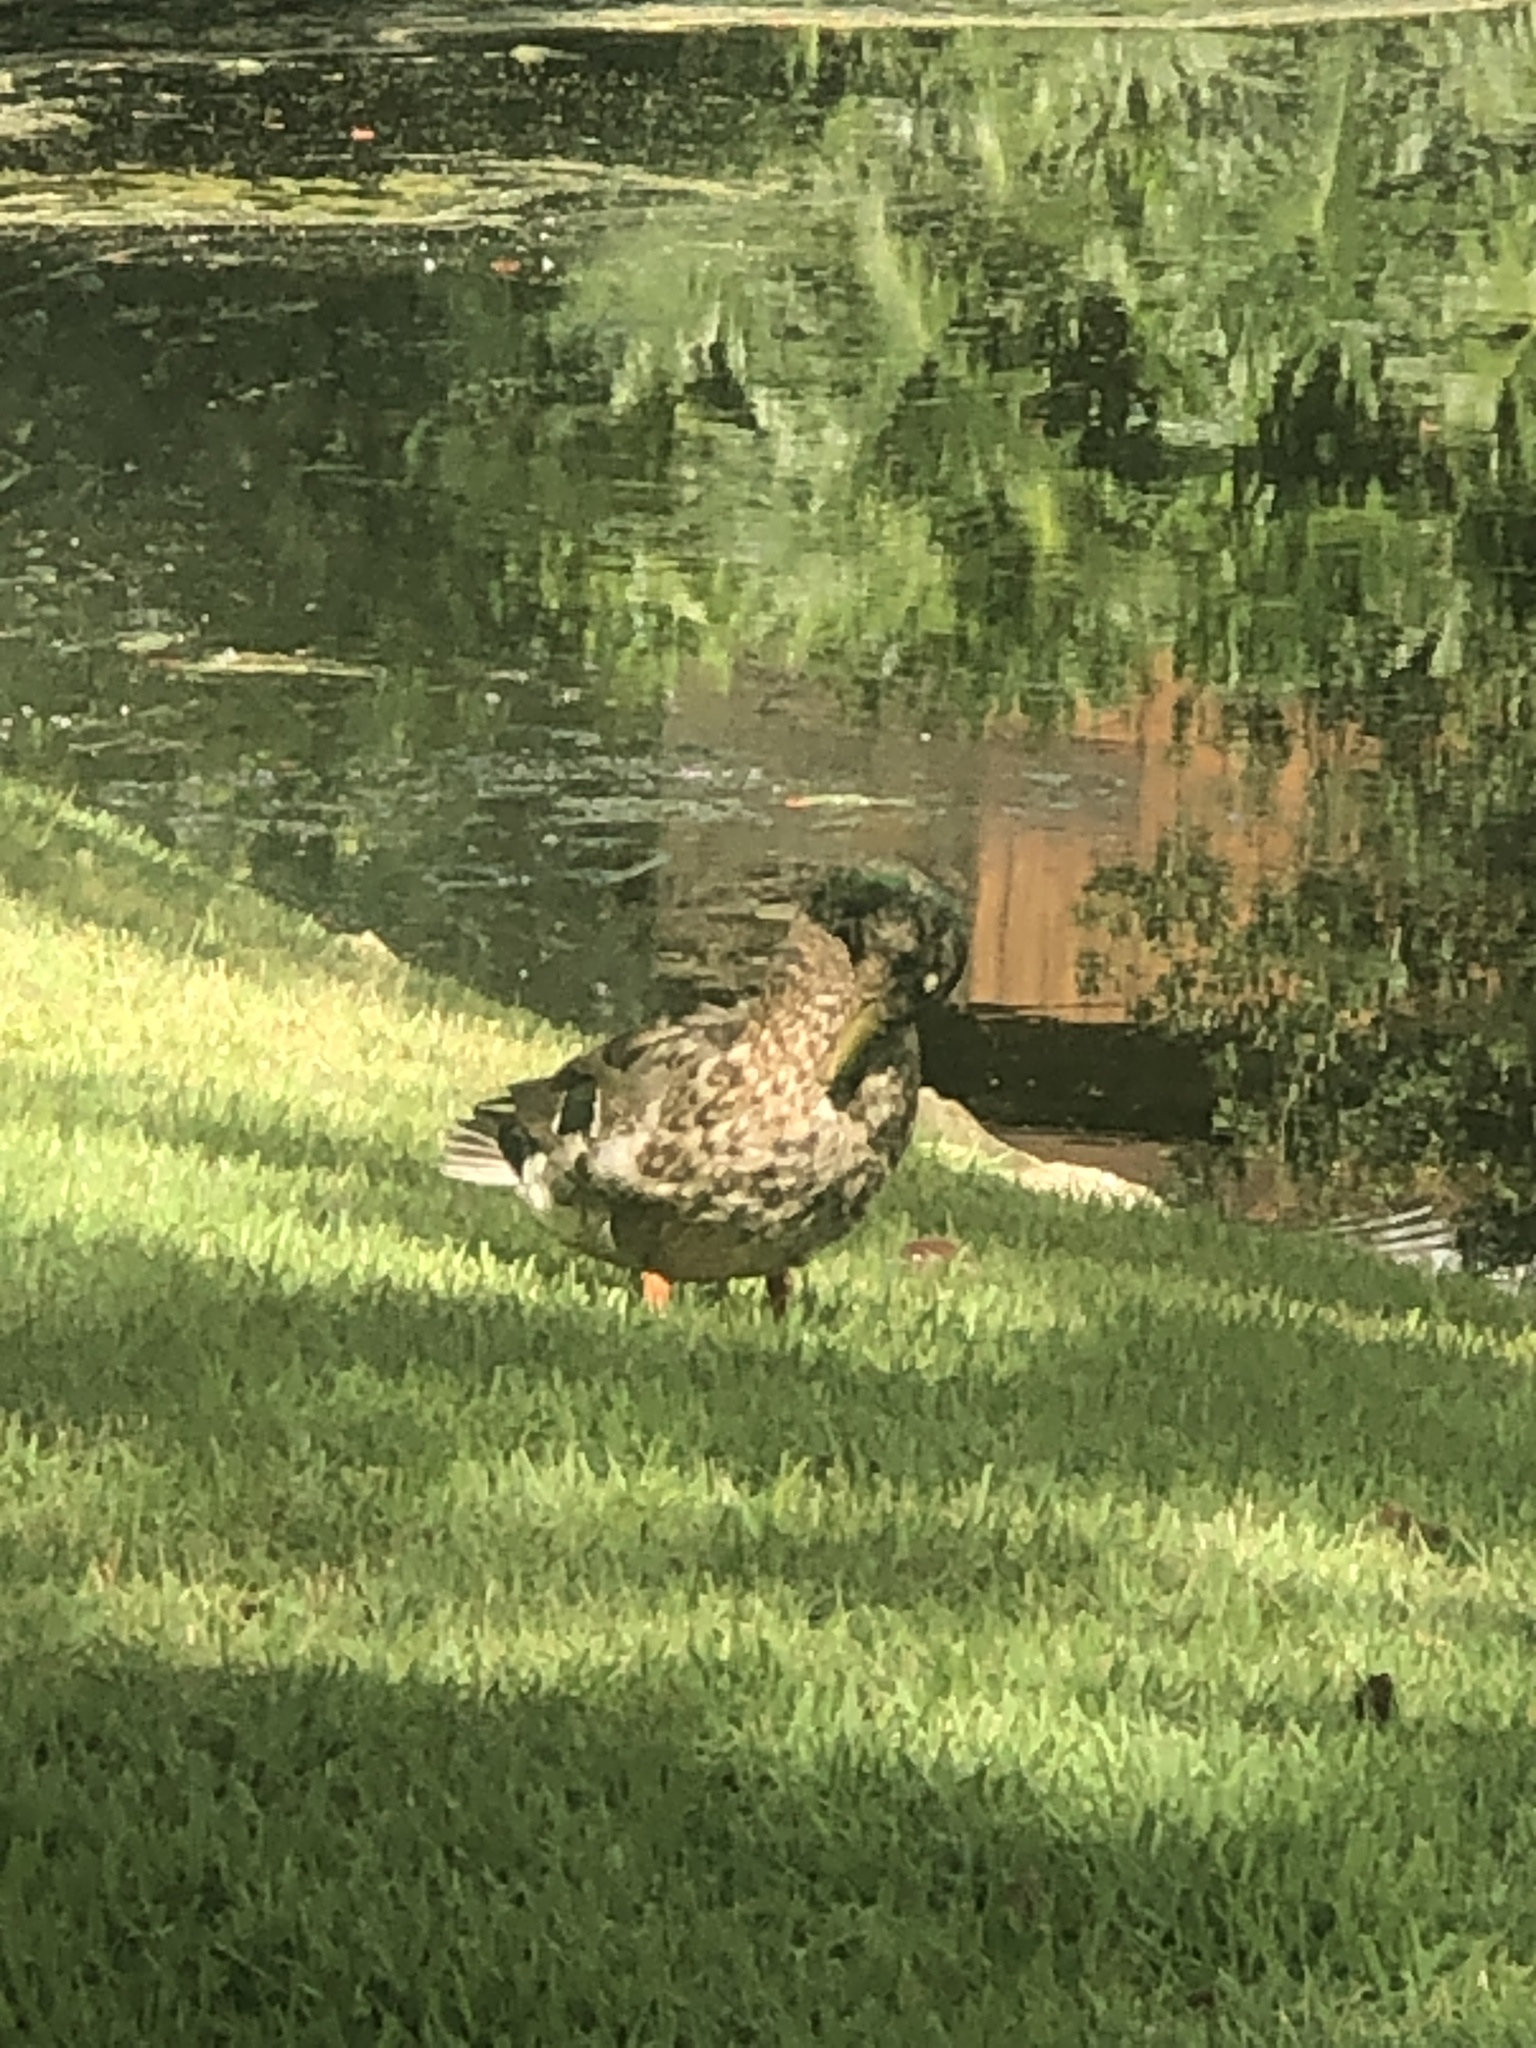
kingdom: Animalia
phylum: Chordata
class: Aves
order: Anseriformes
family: Anatidae
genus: Anas
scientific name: Anas platyrhynchos
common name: Mallard
